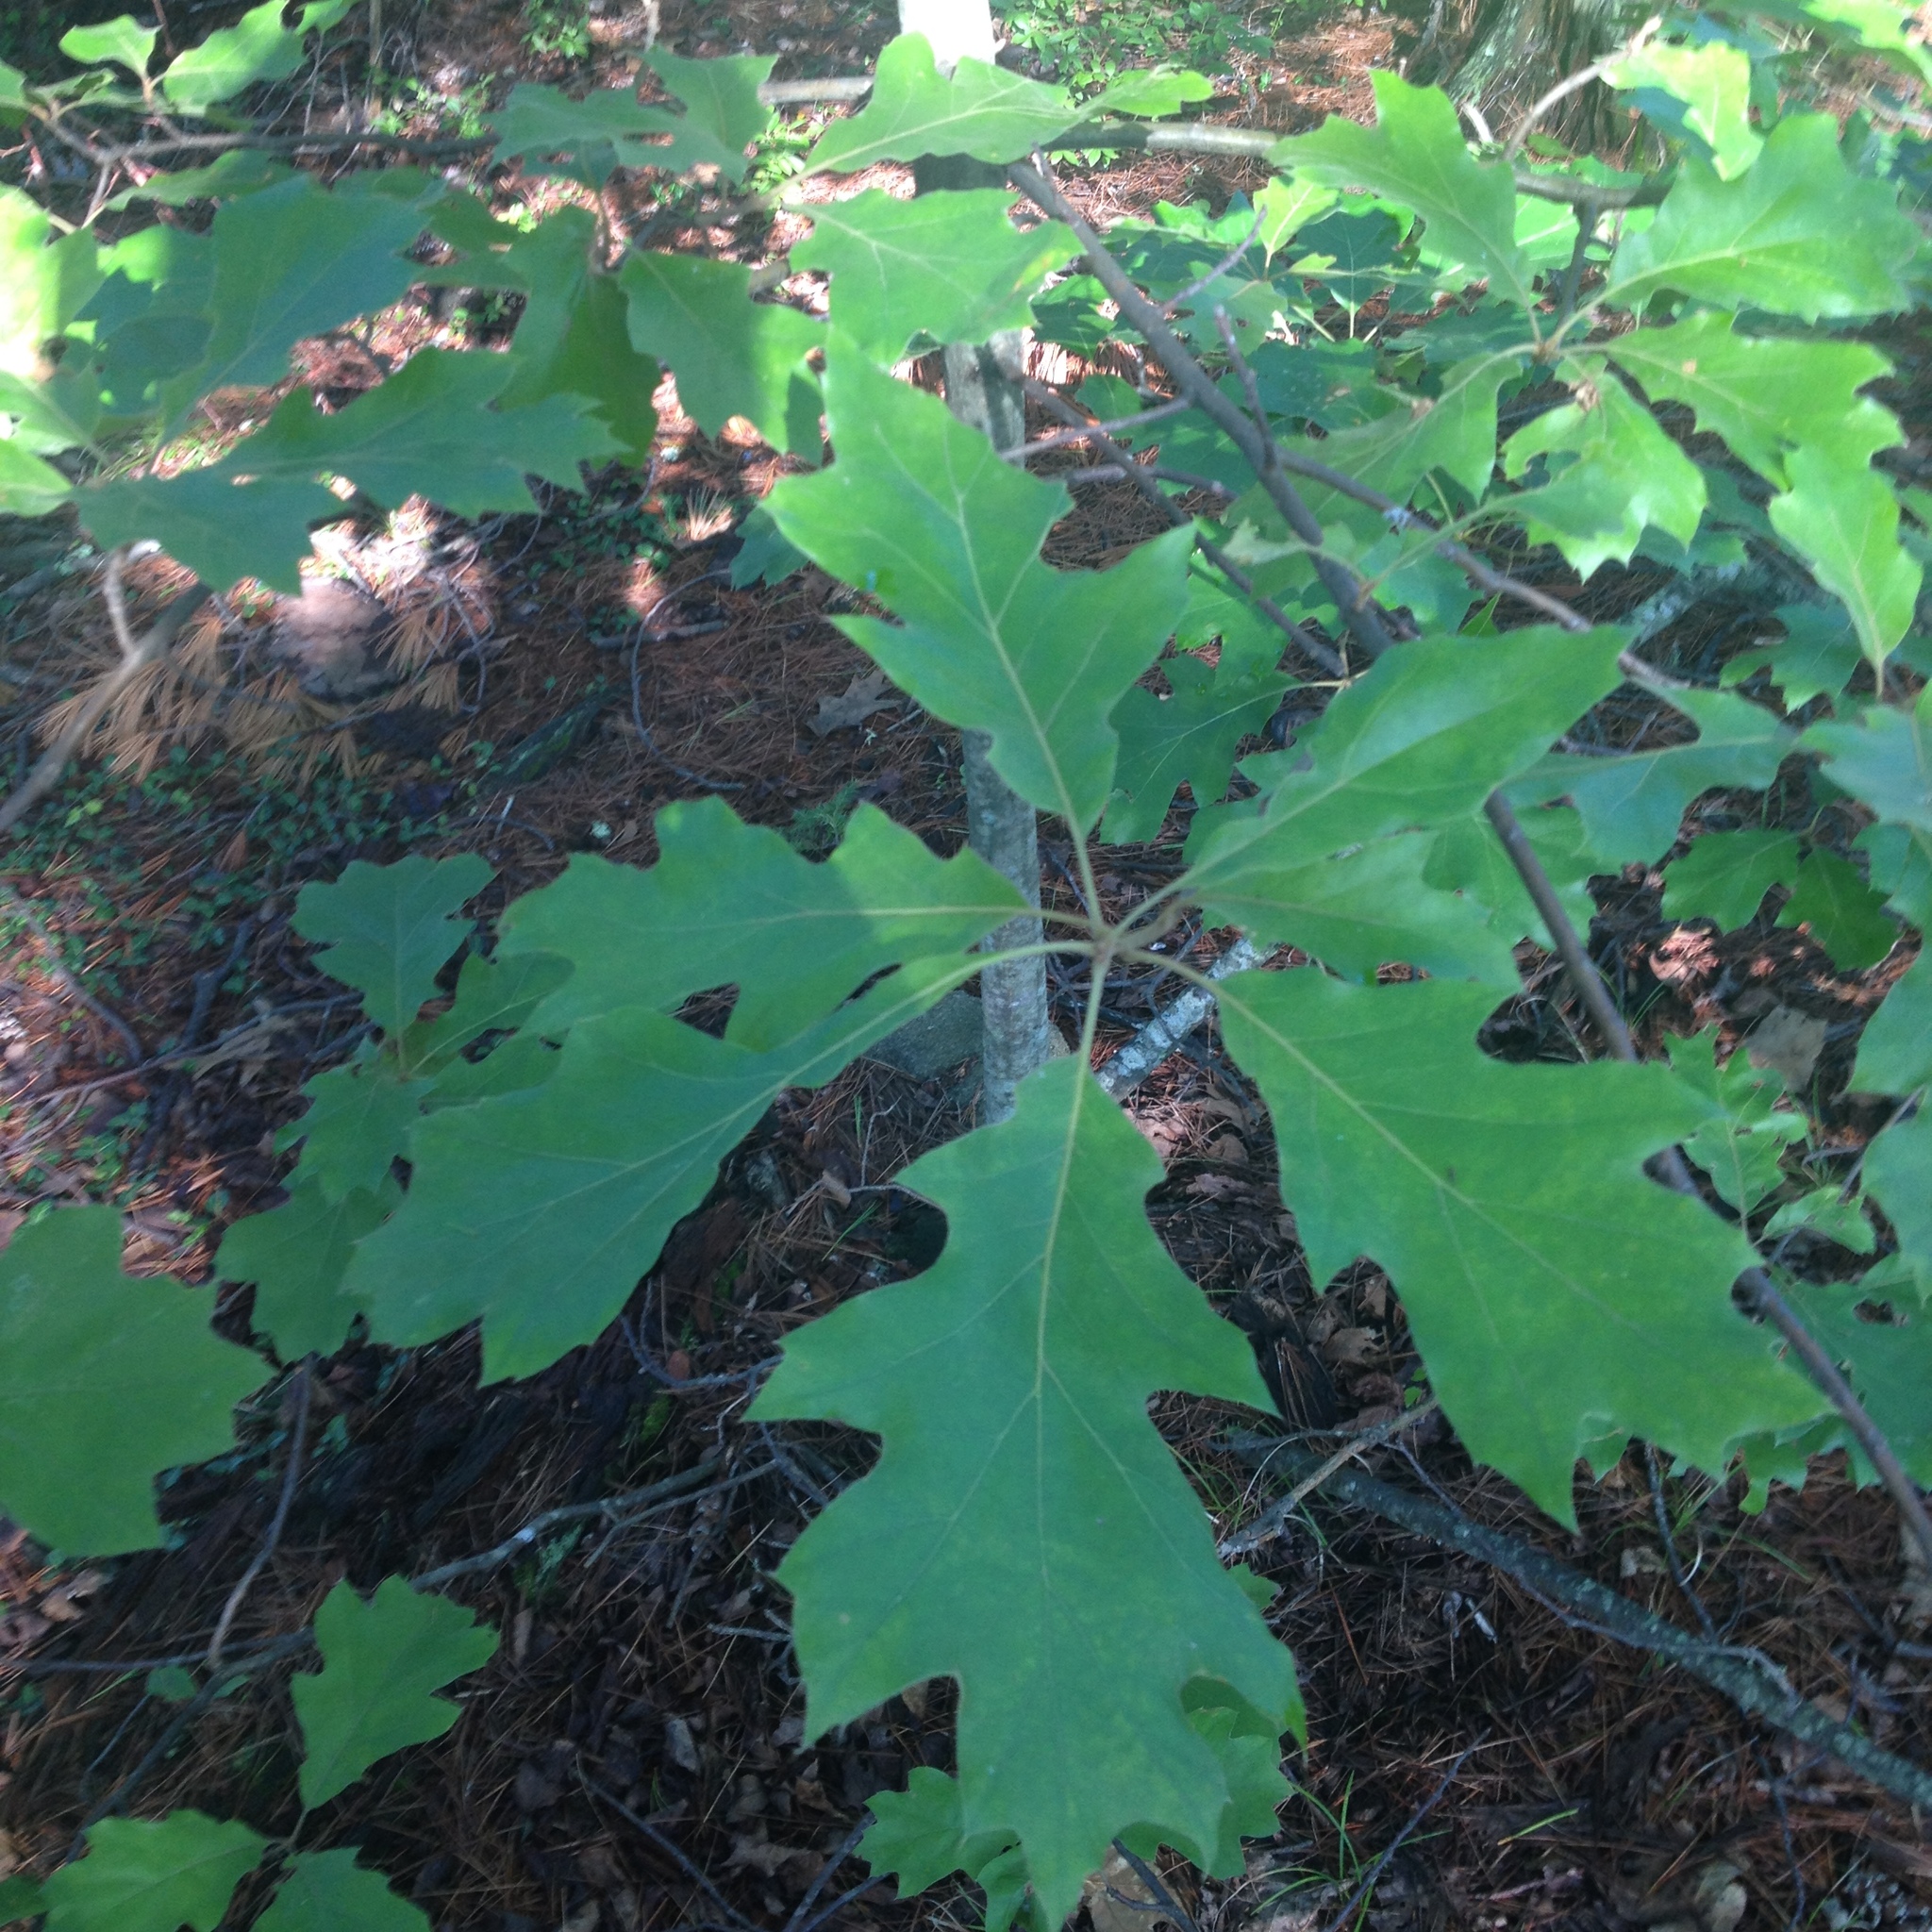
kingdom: Plantae
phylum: Tracheophyta
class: Magnoliopsida
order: Fagales
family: Fagaceae
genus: Quercus
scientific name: Quercus rubra
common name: Red oak
